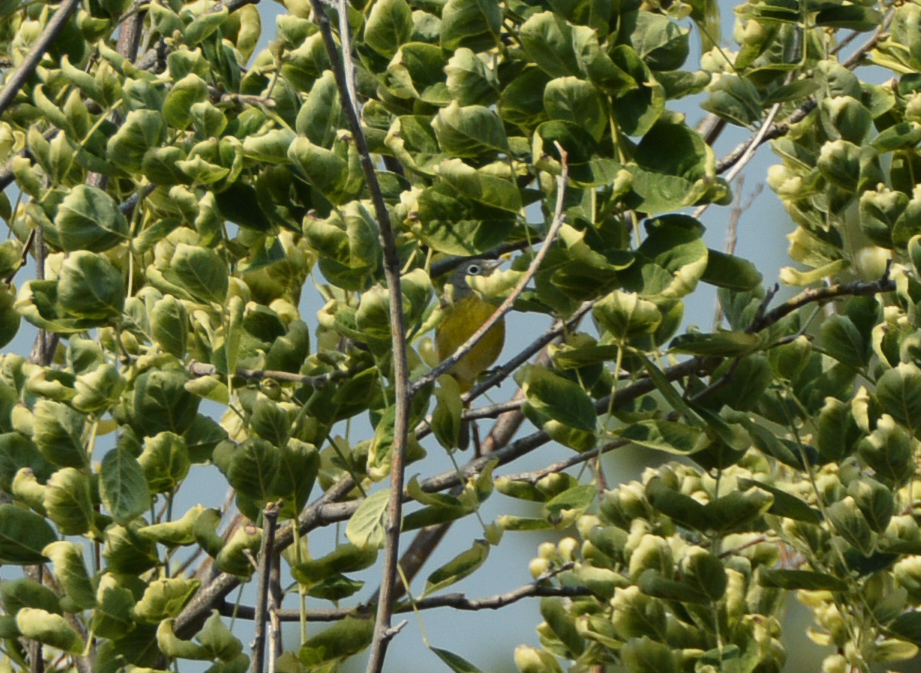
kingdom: Animalia
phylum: Chordata
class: Aves
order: Passeriformes
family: Parulidae
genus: Leiothlypis
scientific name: Leiothlypis ruficapilla
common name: Nashville warbler
